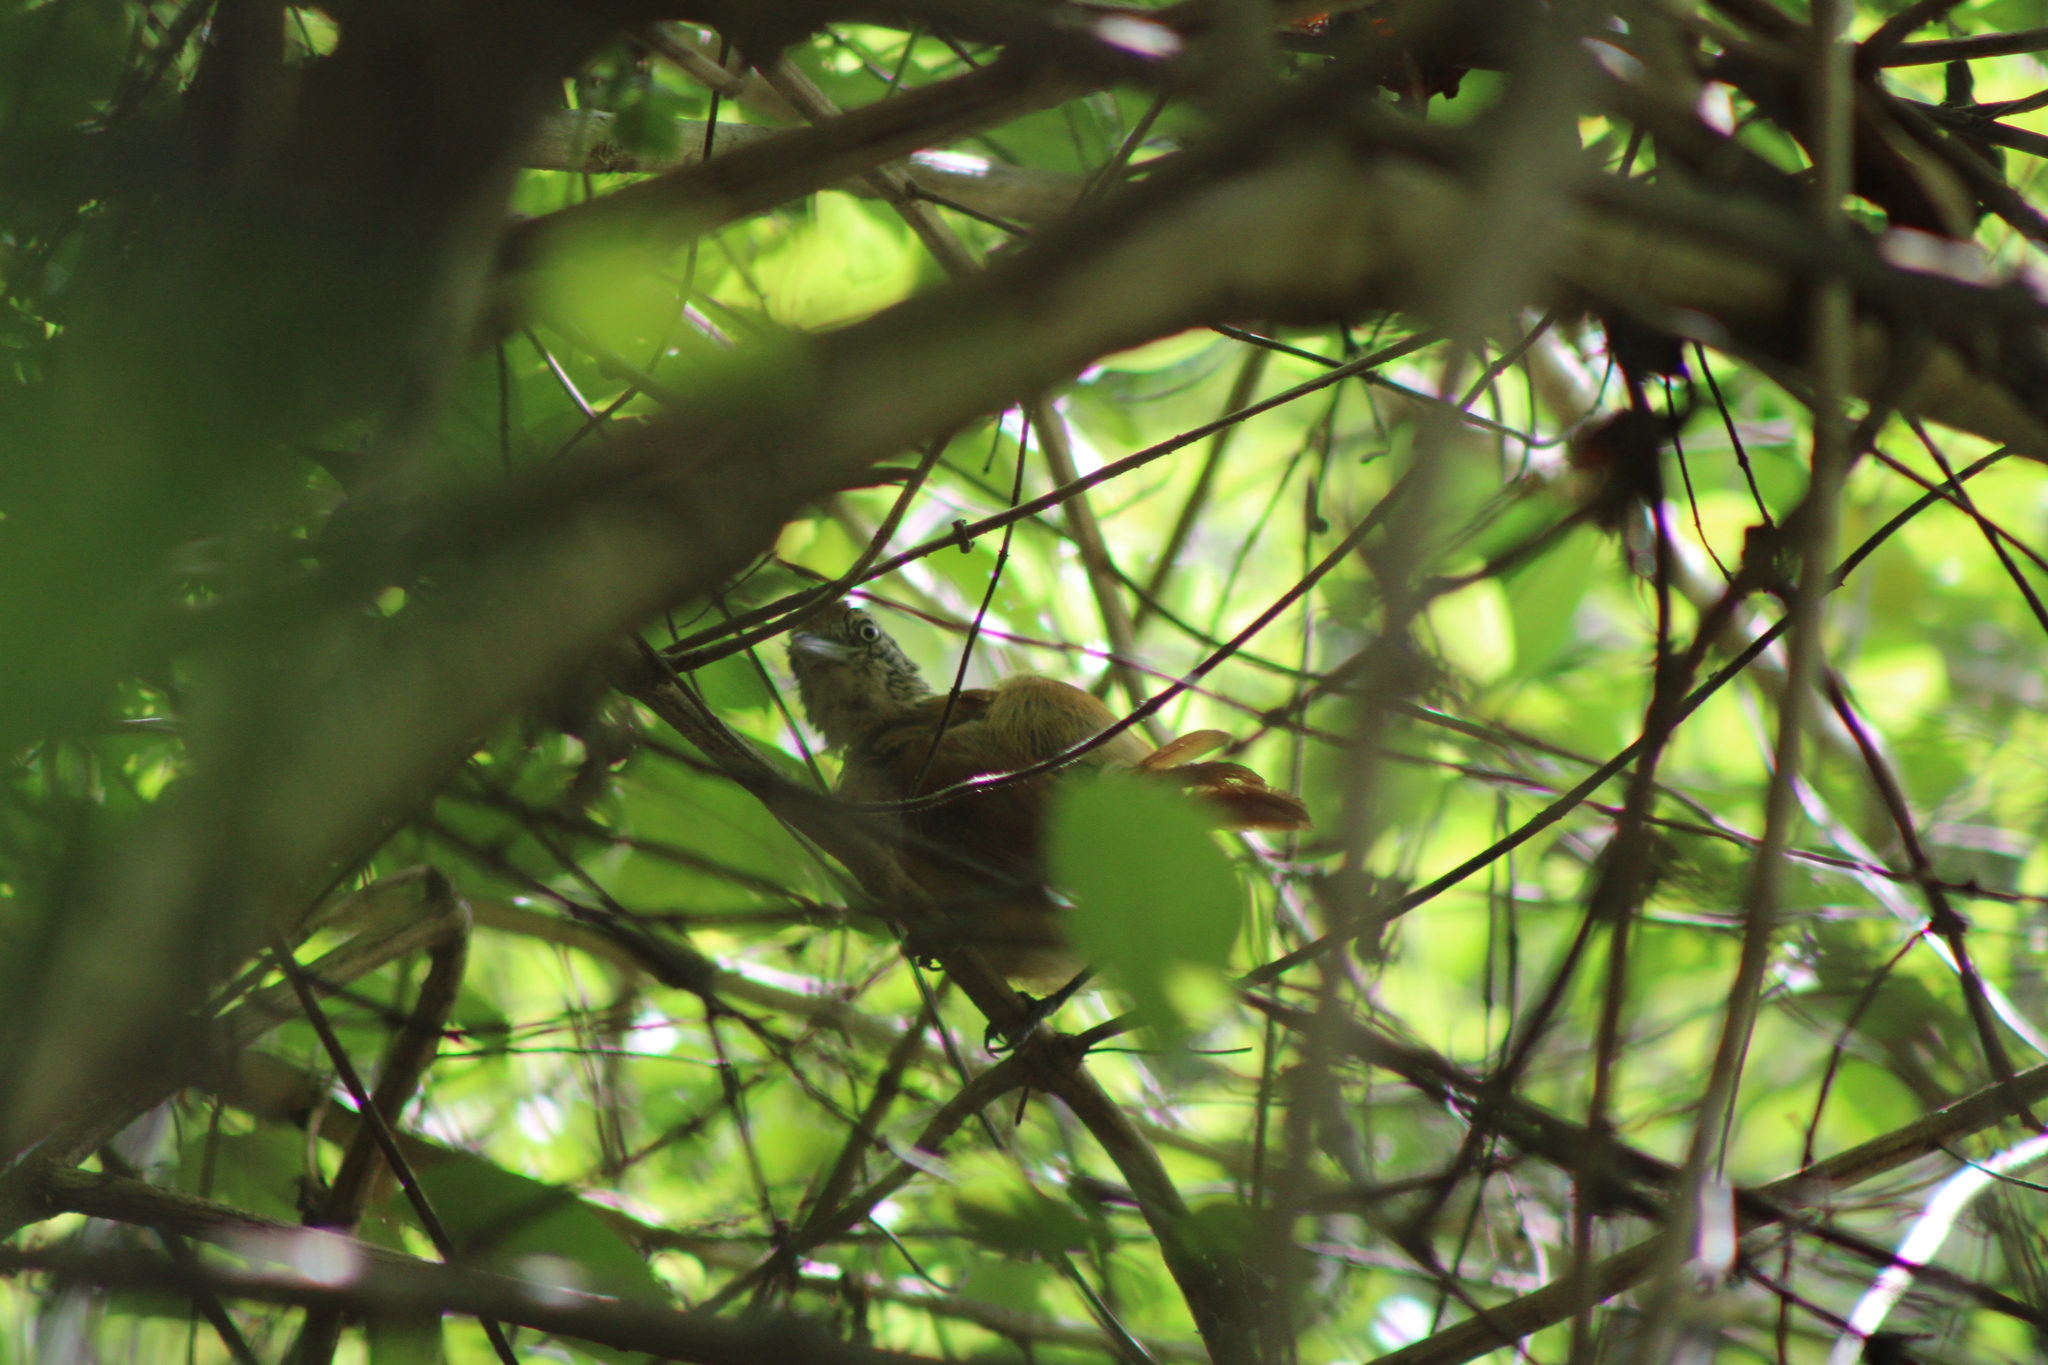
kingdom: Animalia
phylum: Chordata
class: Aves
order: Passeriformes
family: Thamnophilidae
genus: Thamnophilus
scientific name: Thamnophilus doliatus
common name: Barred antshrike
